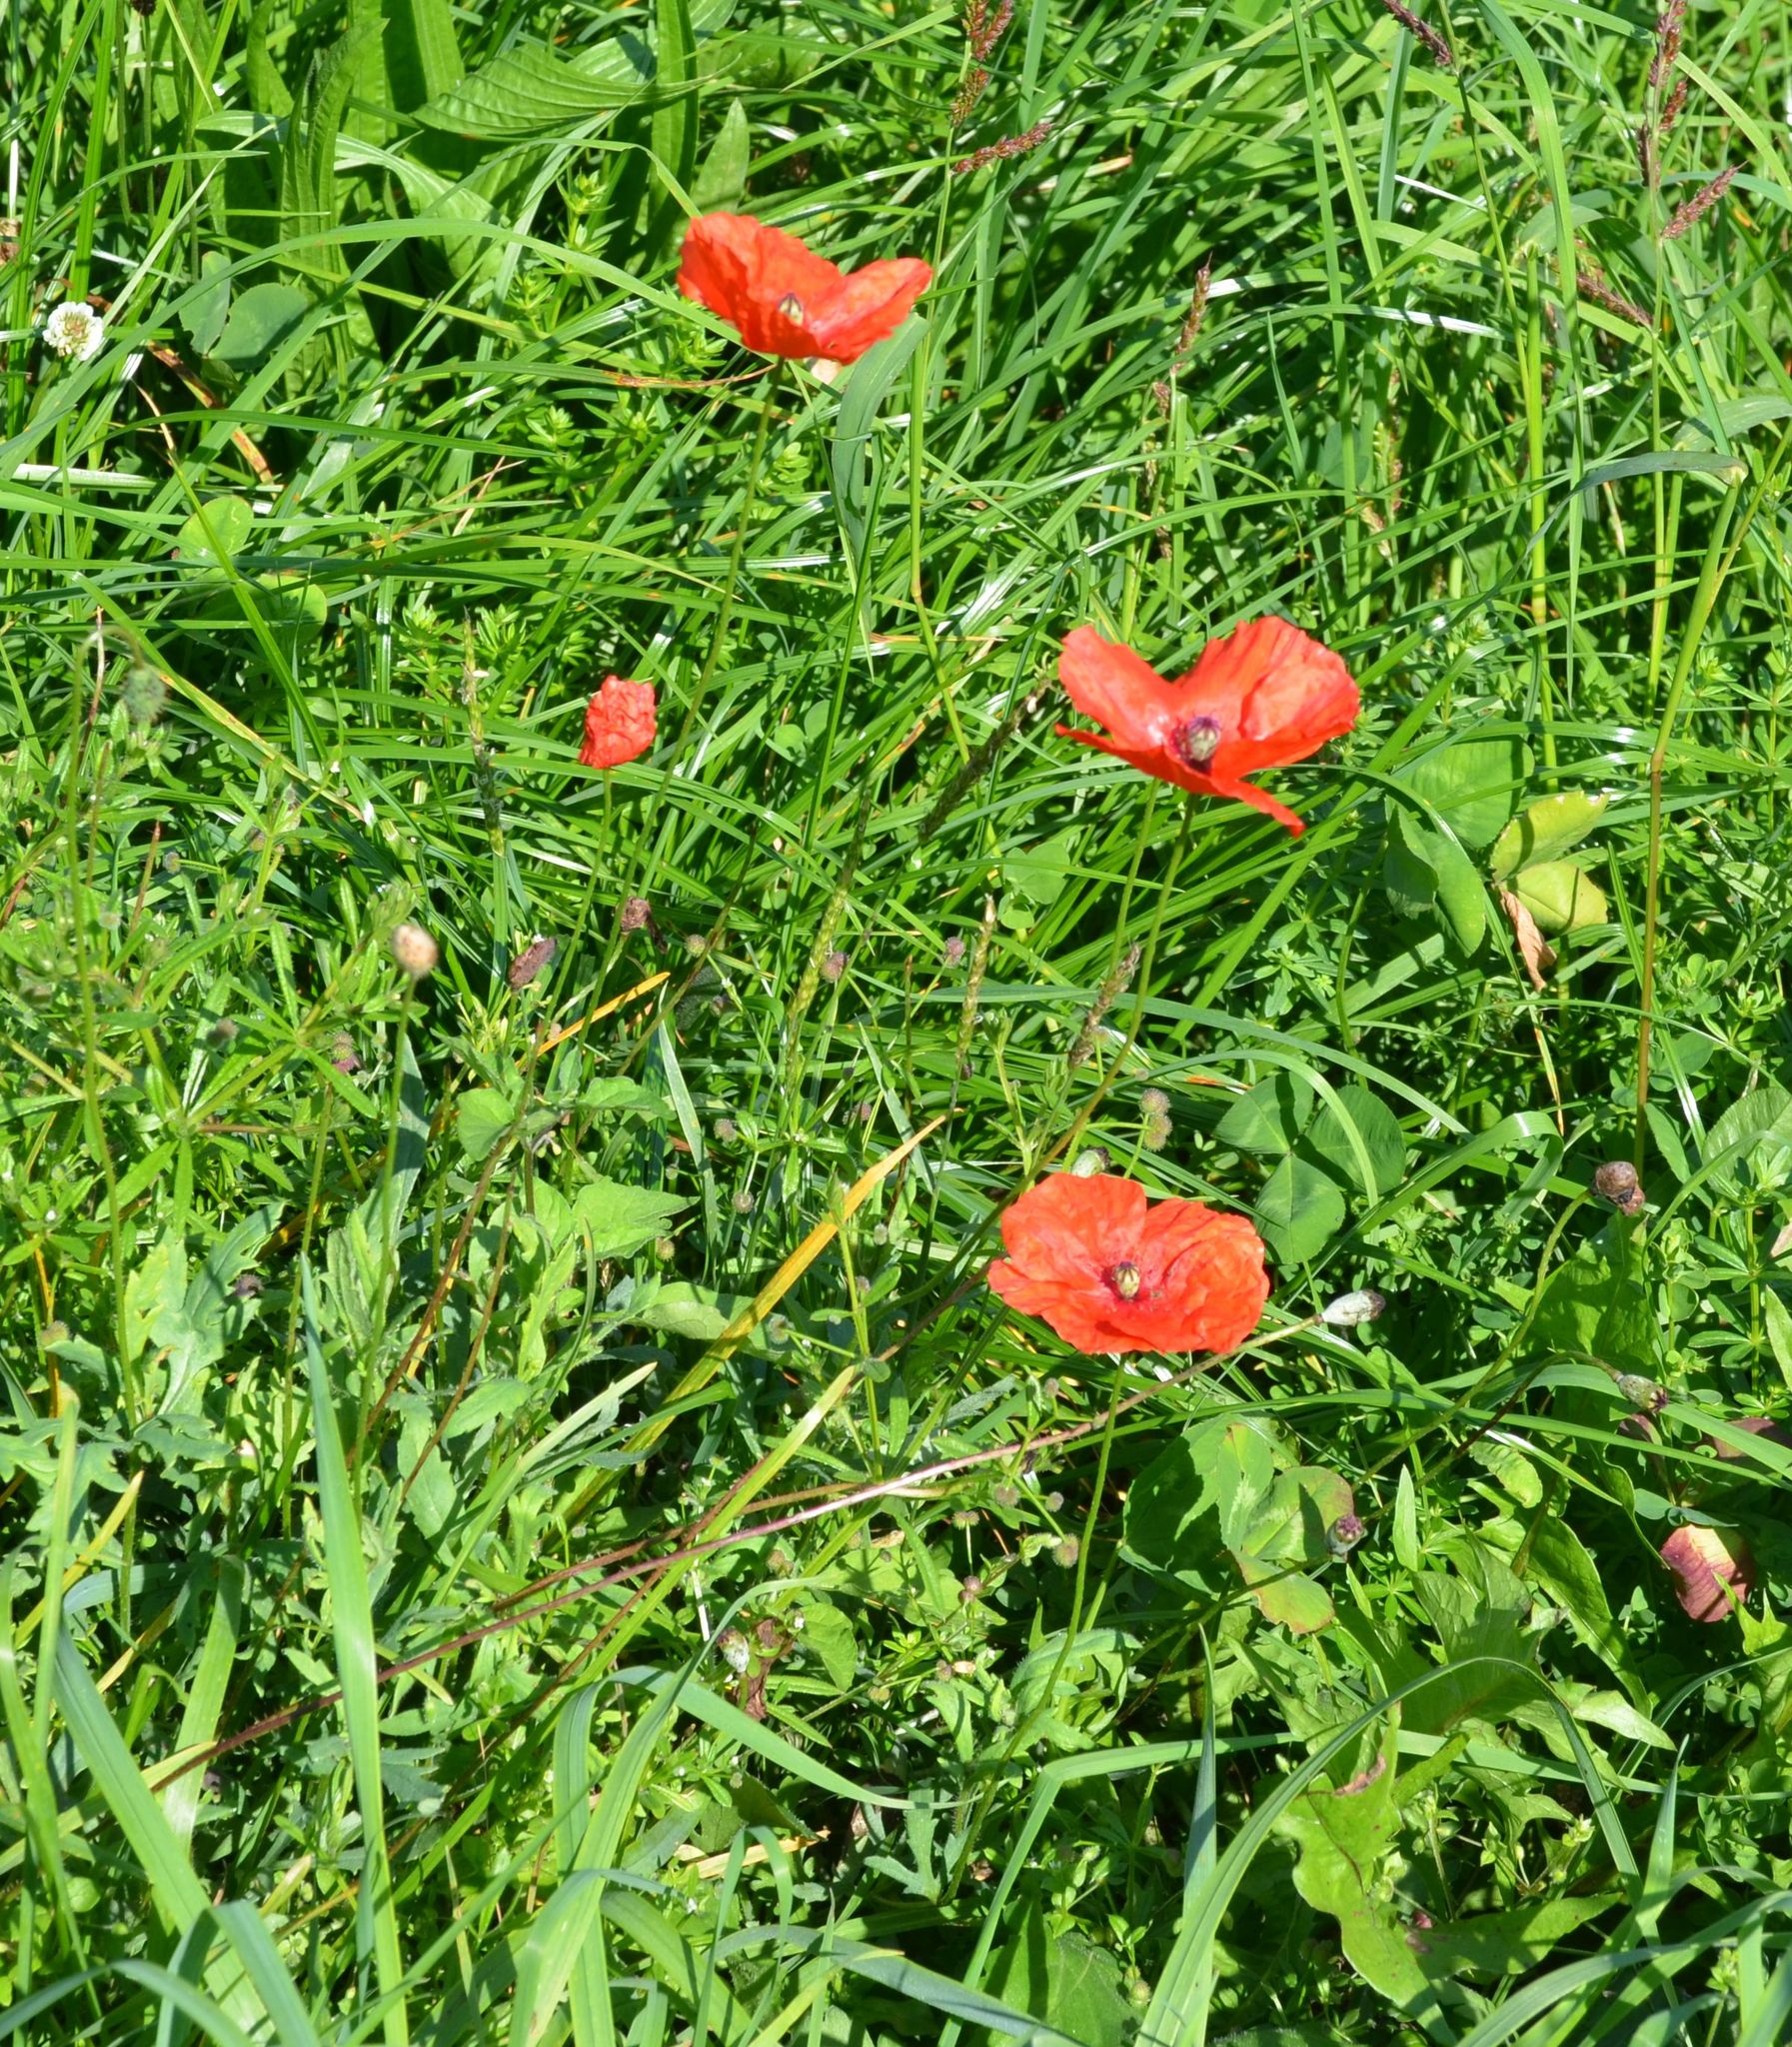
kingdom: Plantae
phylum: Tracheophyta
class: Magnoliopsida
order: Ranunculales
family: Papaveraceae
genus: Papaver
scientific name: Papaver rhoeas
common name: Corn poppy
